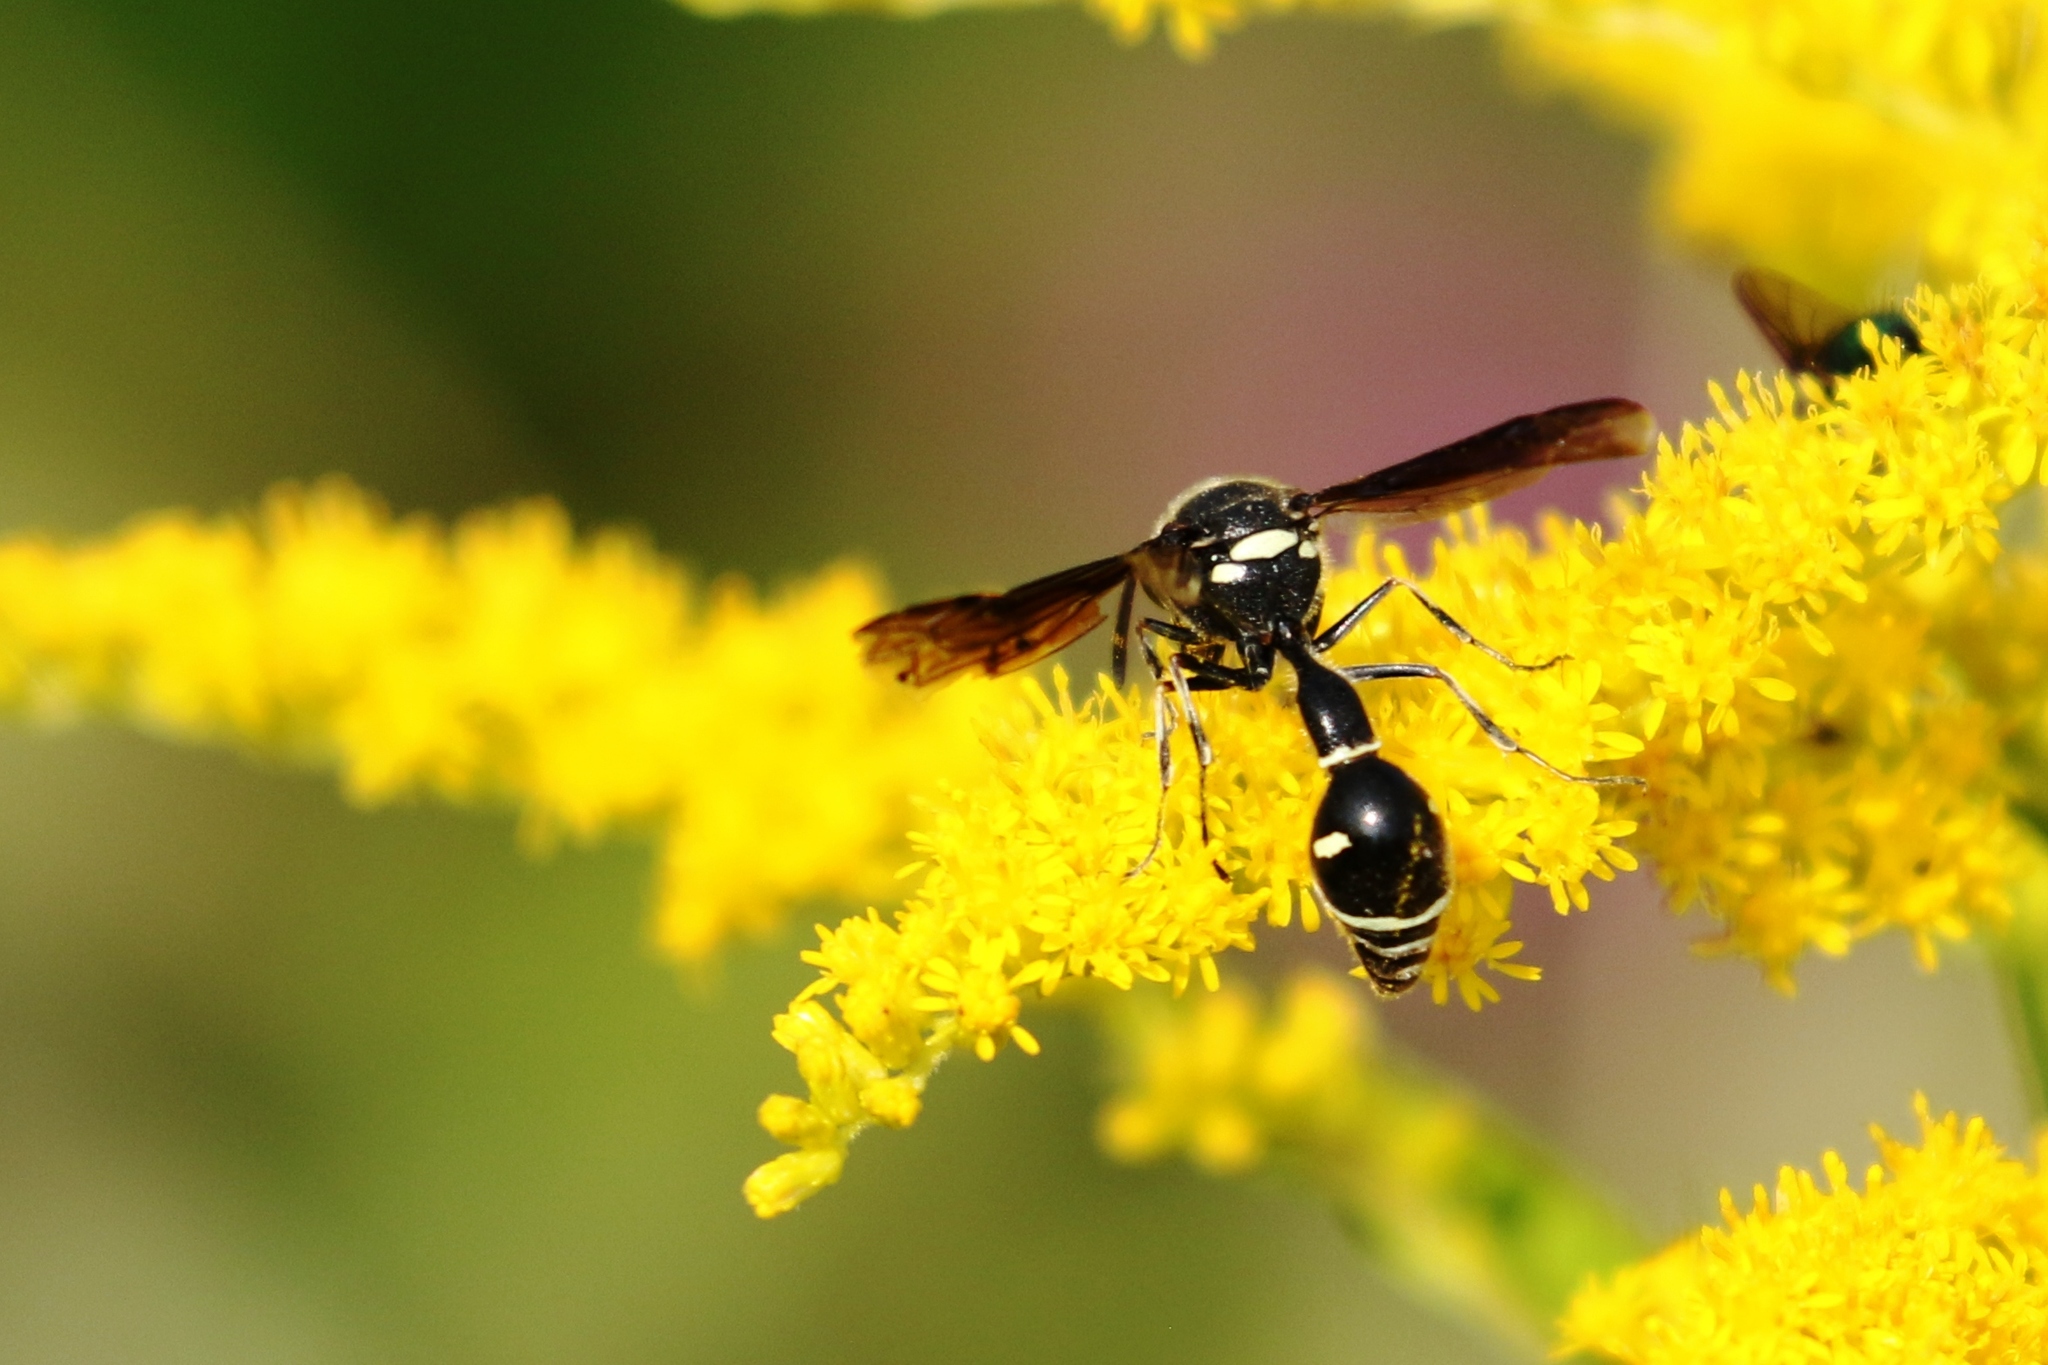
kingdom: Animalia
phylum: Arthropoda
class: Insecta
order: Hymenoptera
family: Vespidae
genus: Eumenes
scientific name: Eumenes fraternus
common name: Fraternal potter wasp
